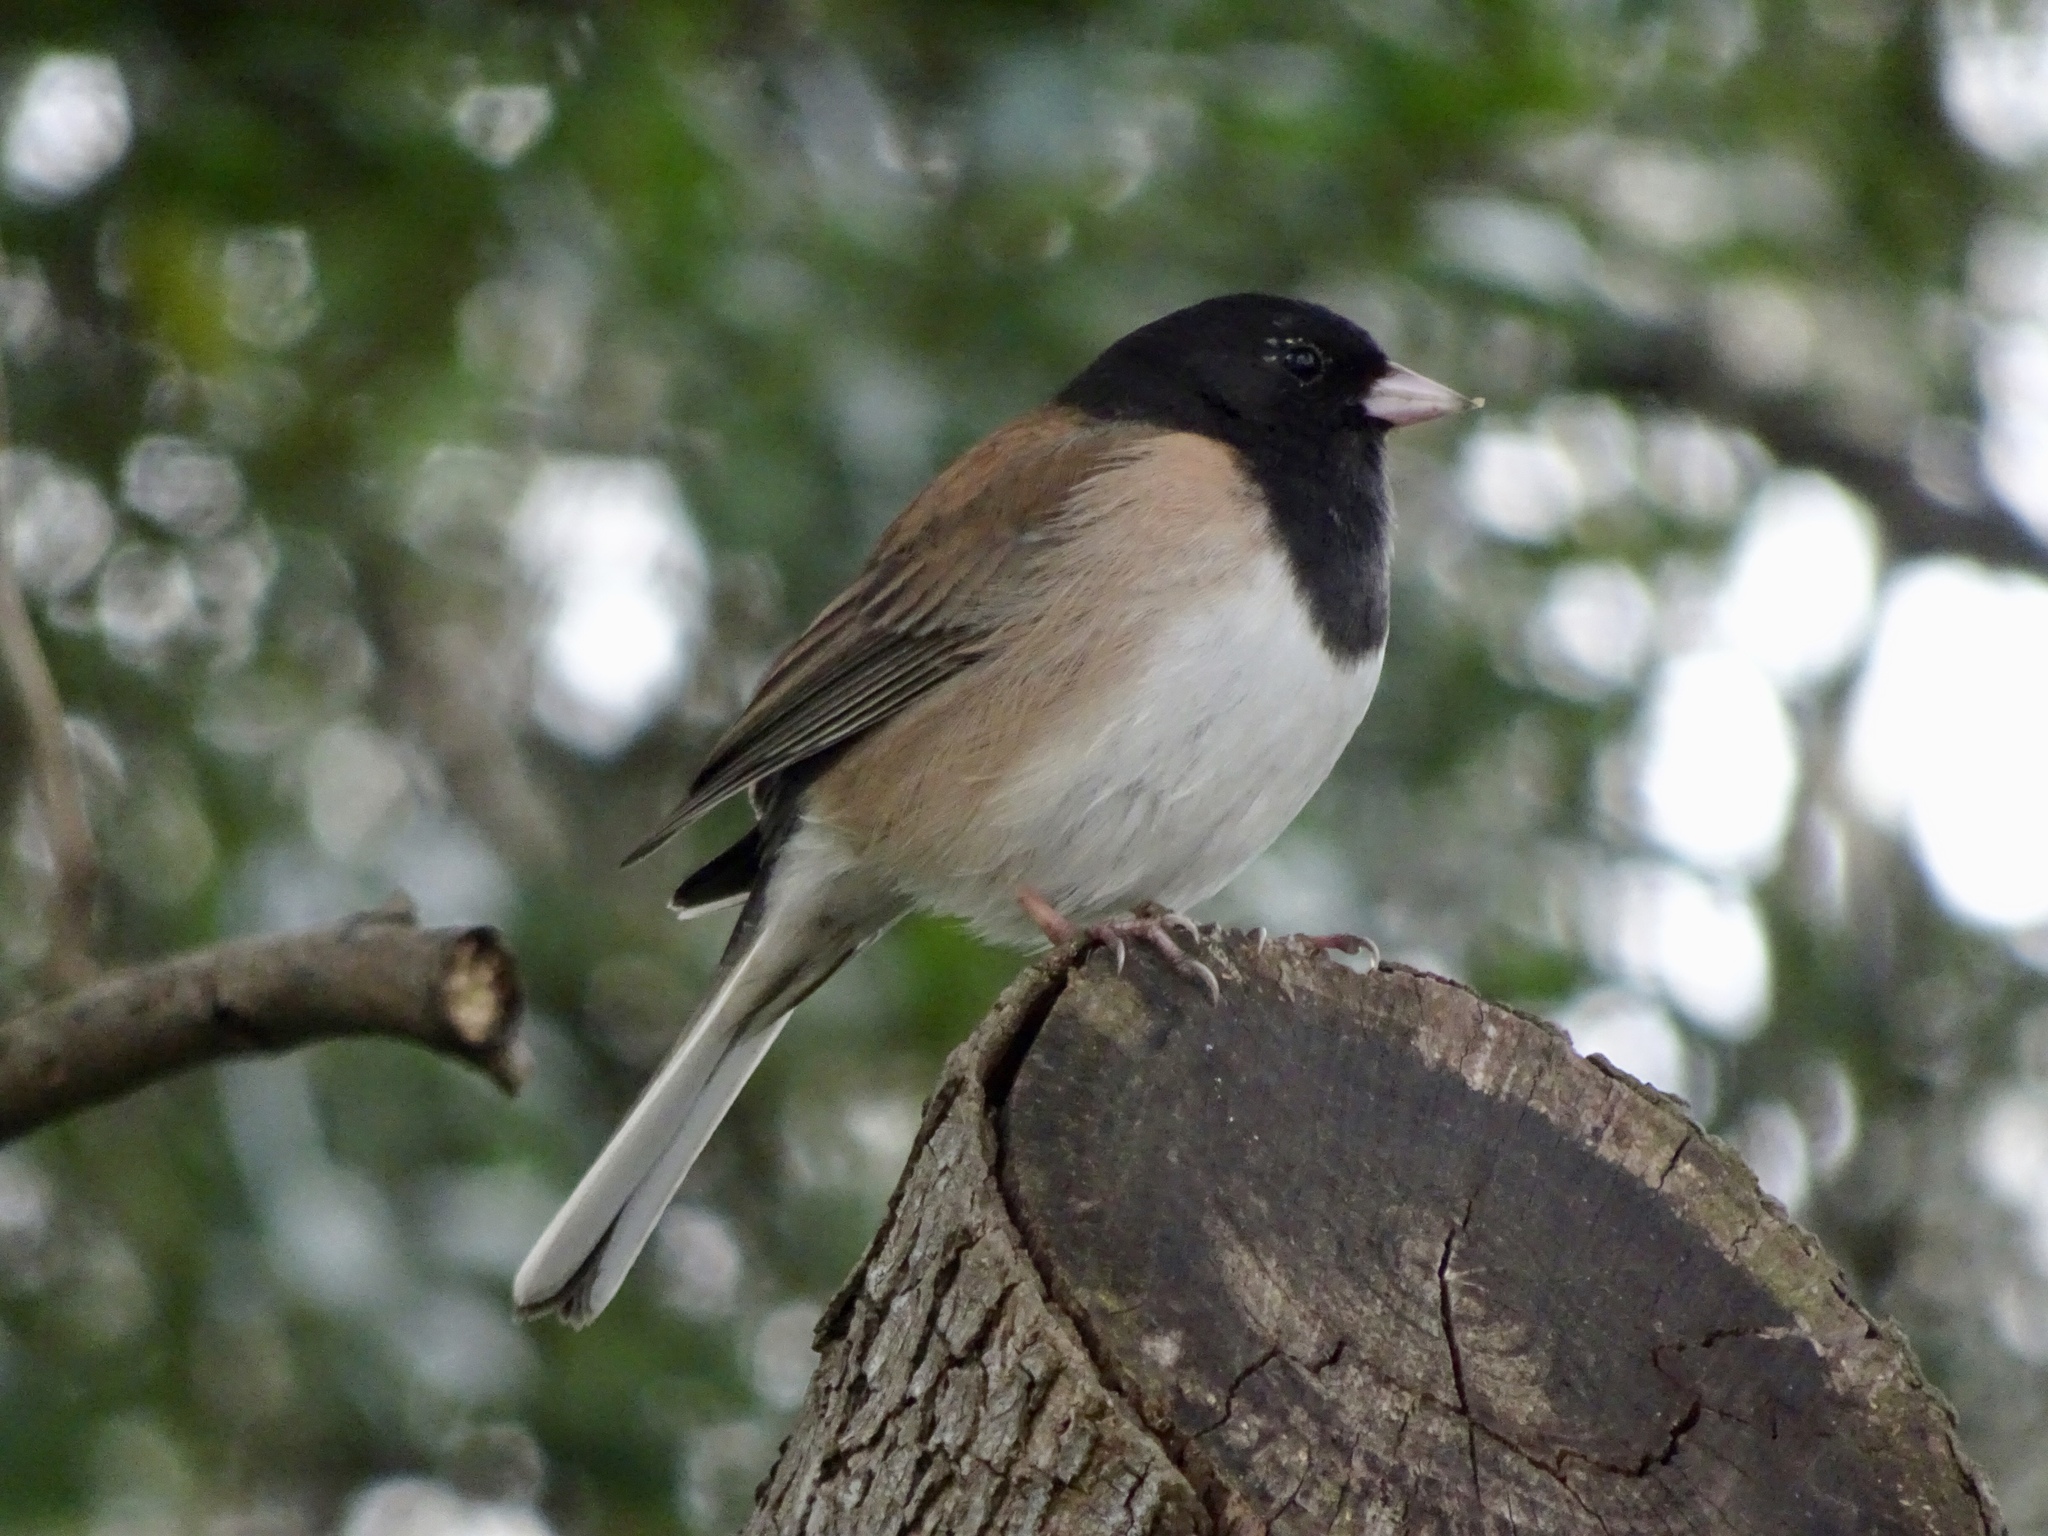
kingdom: Animalia
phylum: Chordata
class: Aves
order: Passeriformes
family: Passerellidae
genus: Junco
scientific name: Junco hyemalis
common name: Dark-eyed junco
